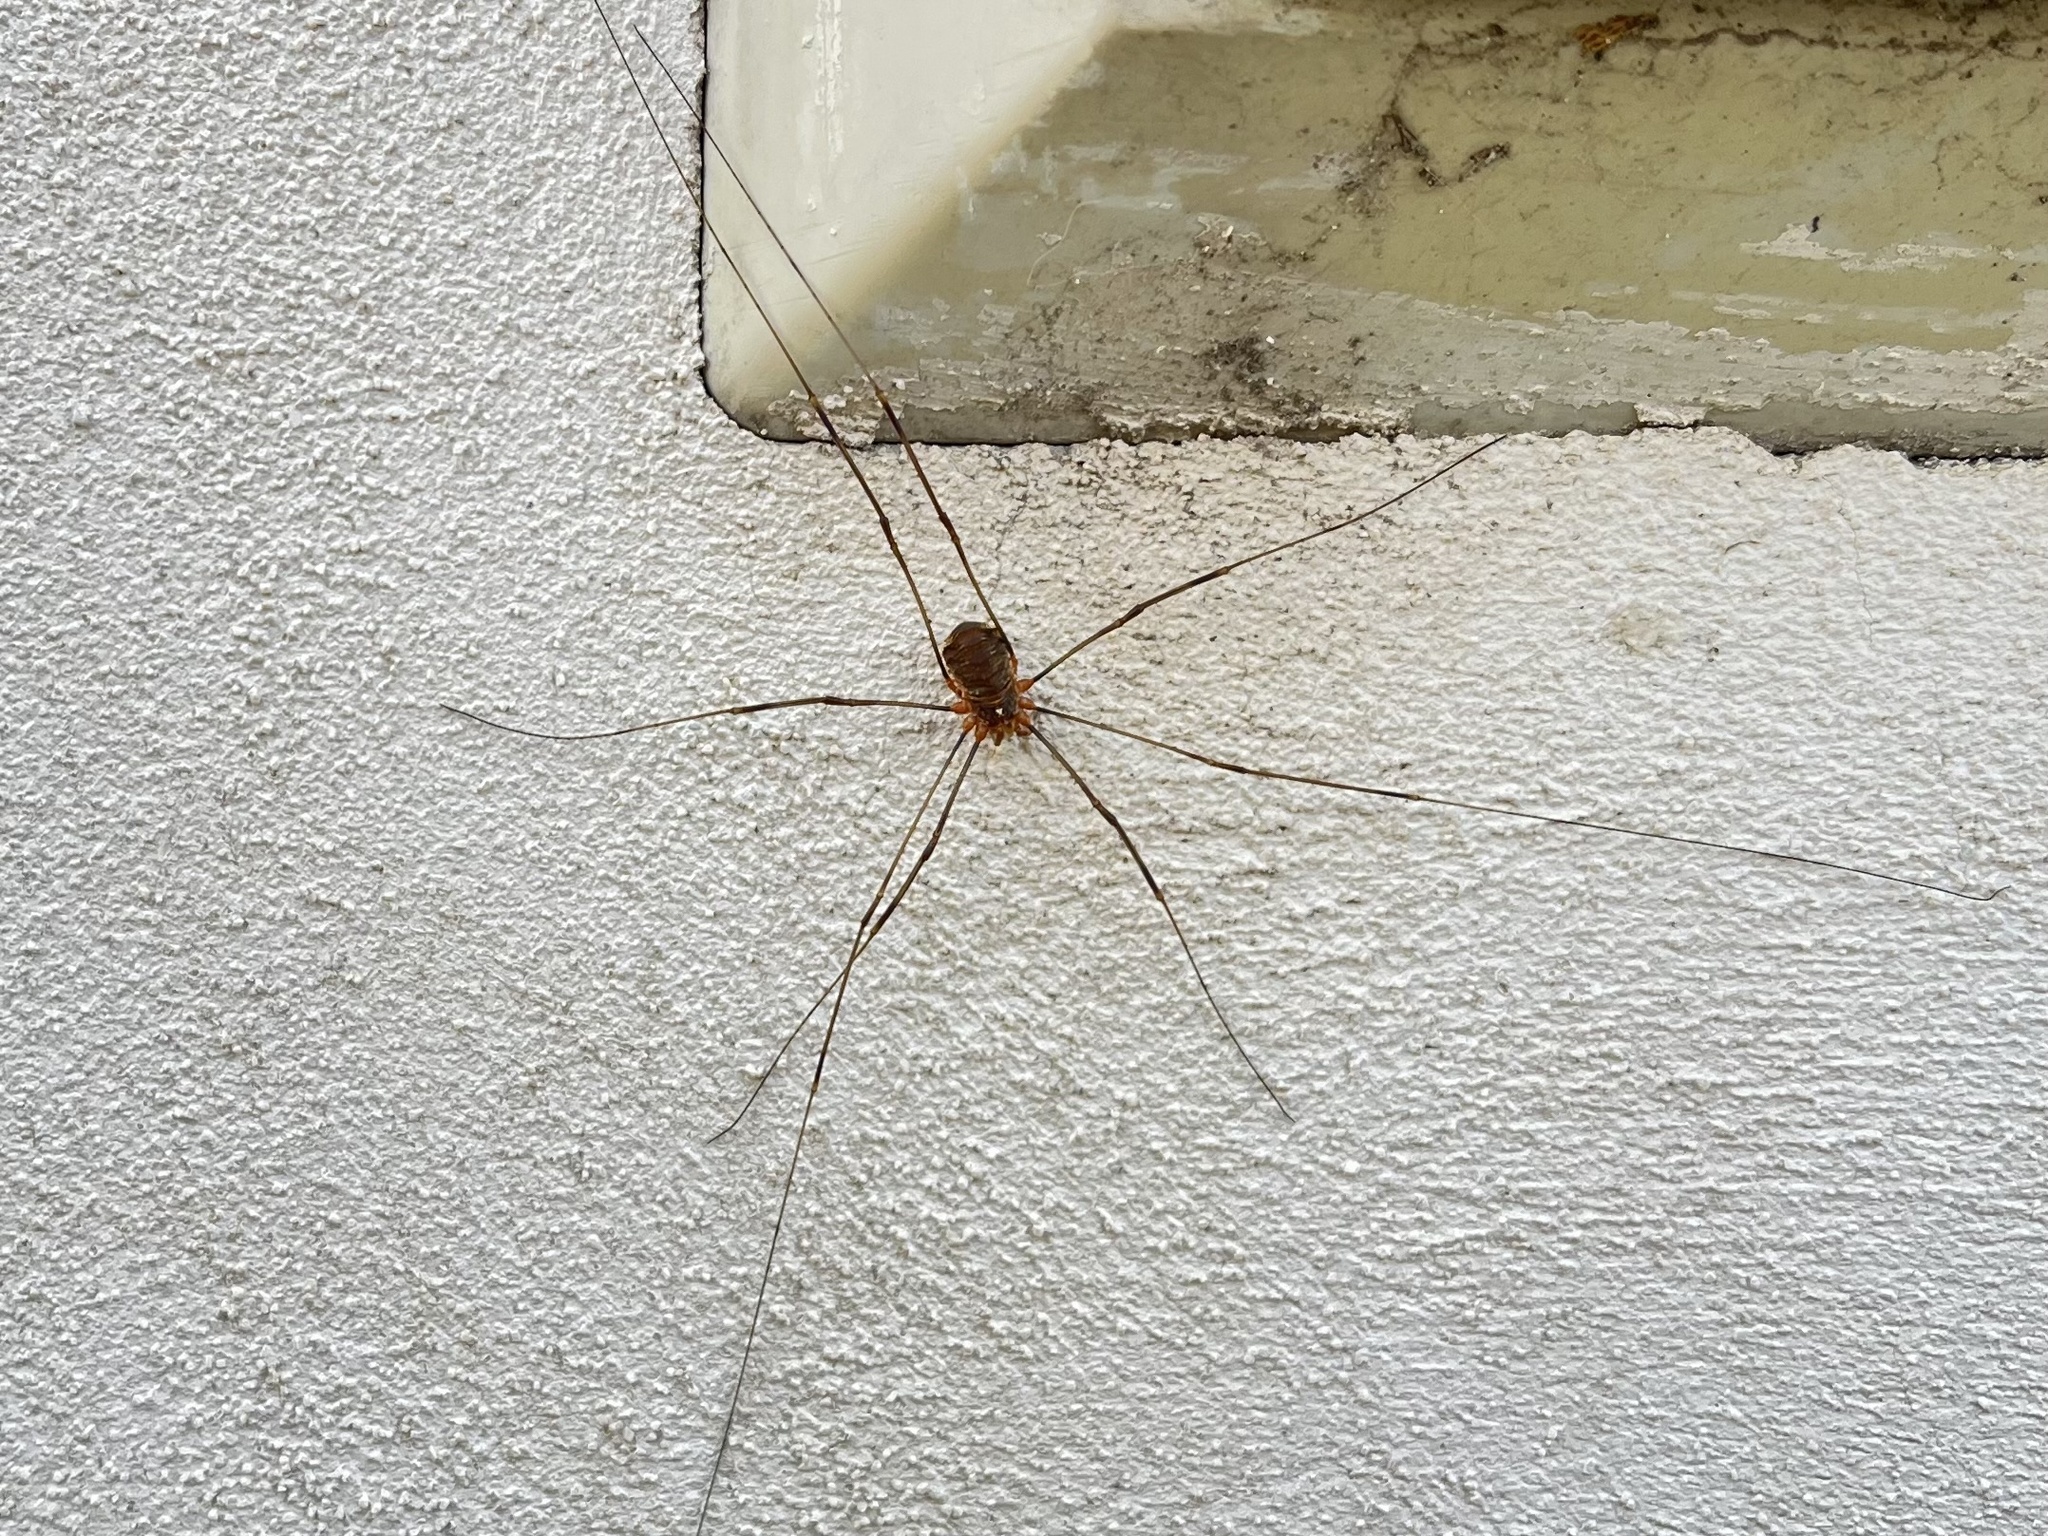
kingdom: Animalia
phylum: Arthropoda
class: Arachnida
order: Opiliones
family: Phalangiidae
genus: Opilio
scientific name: Opilio canestrinii
